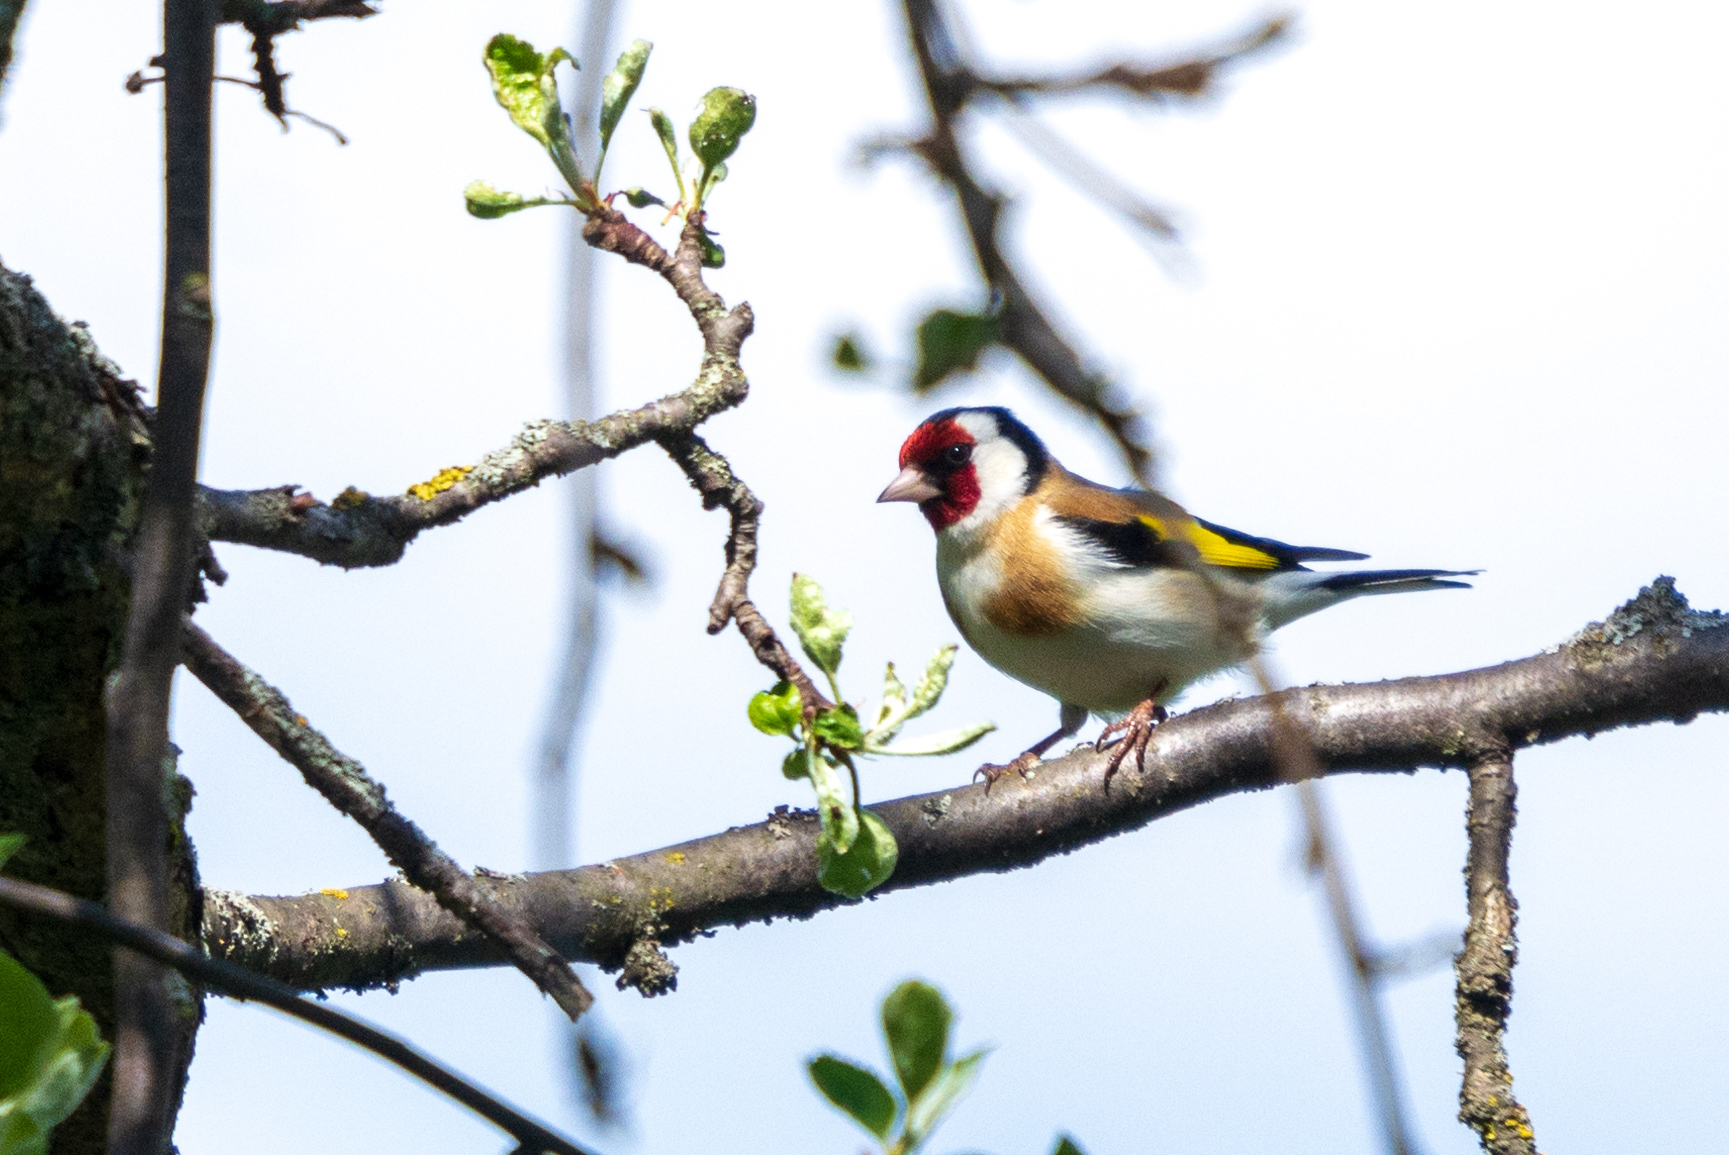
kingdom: Animalia
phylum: Chordata
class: Aves
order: Passeriformes
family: Fringillidae
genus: Carduelis
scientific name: Carduelis carduelis
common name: European goldfinch
